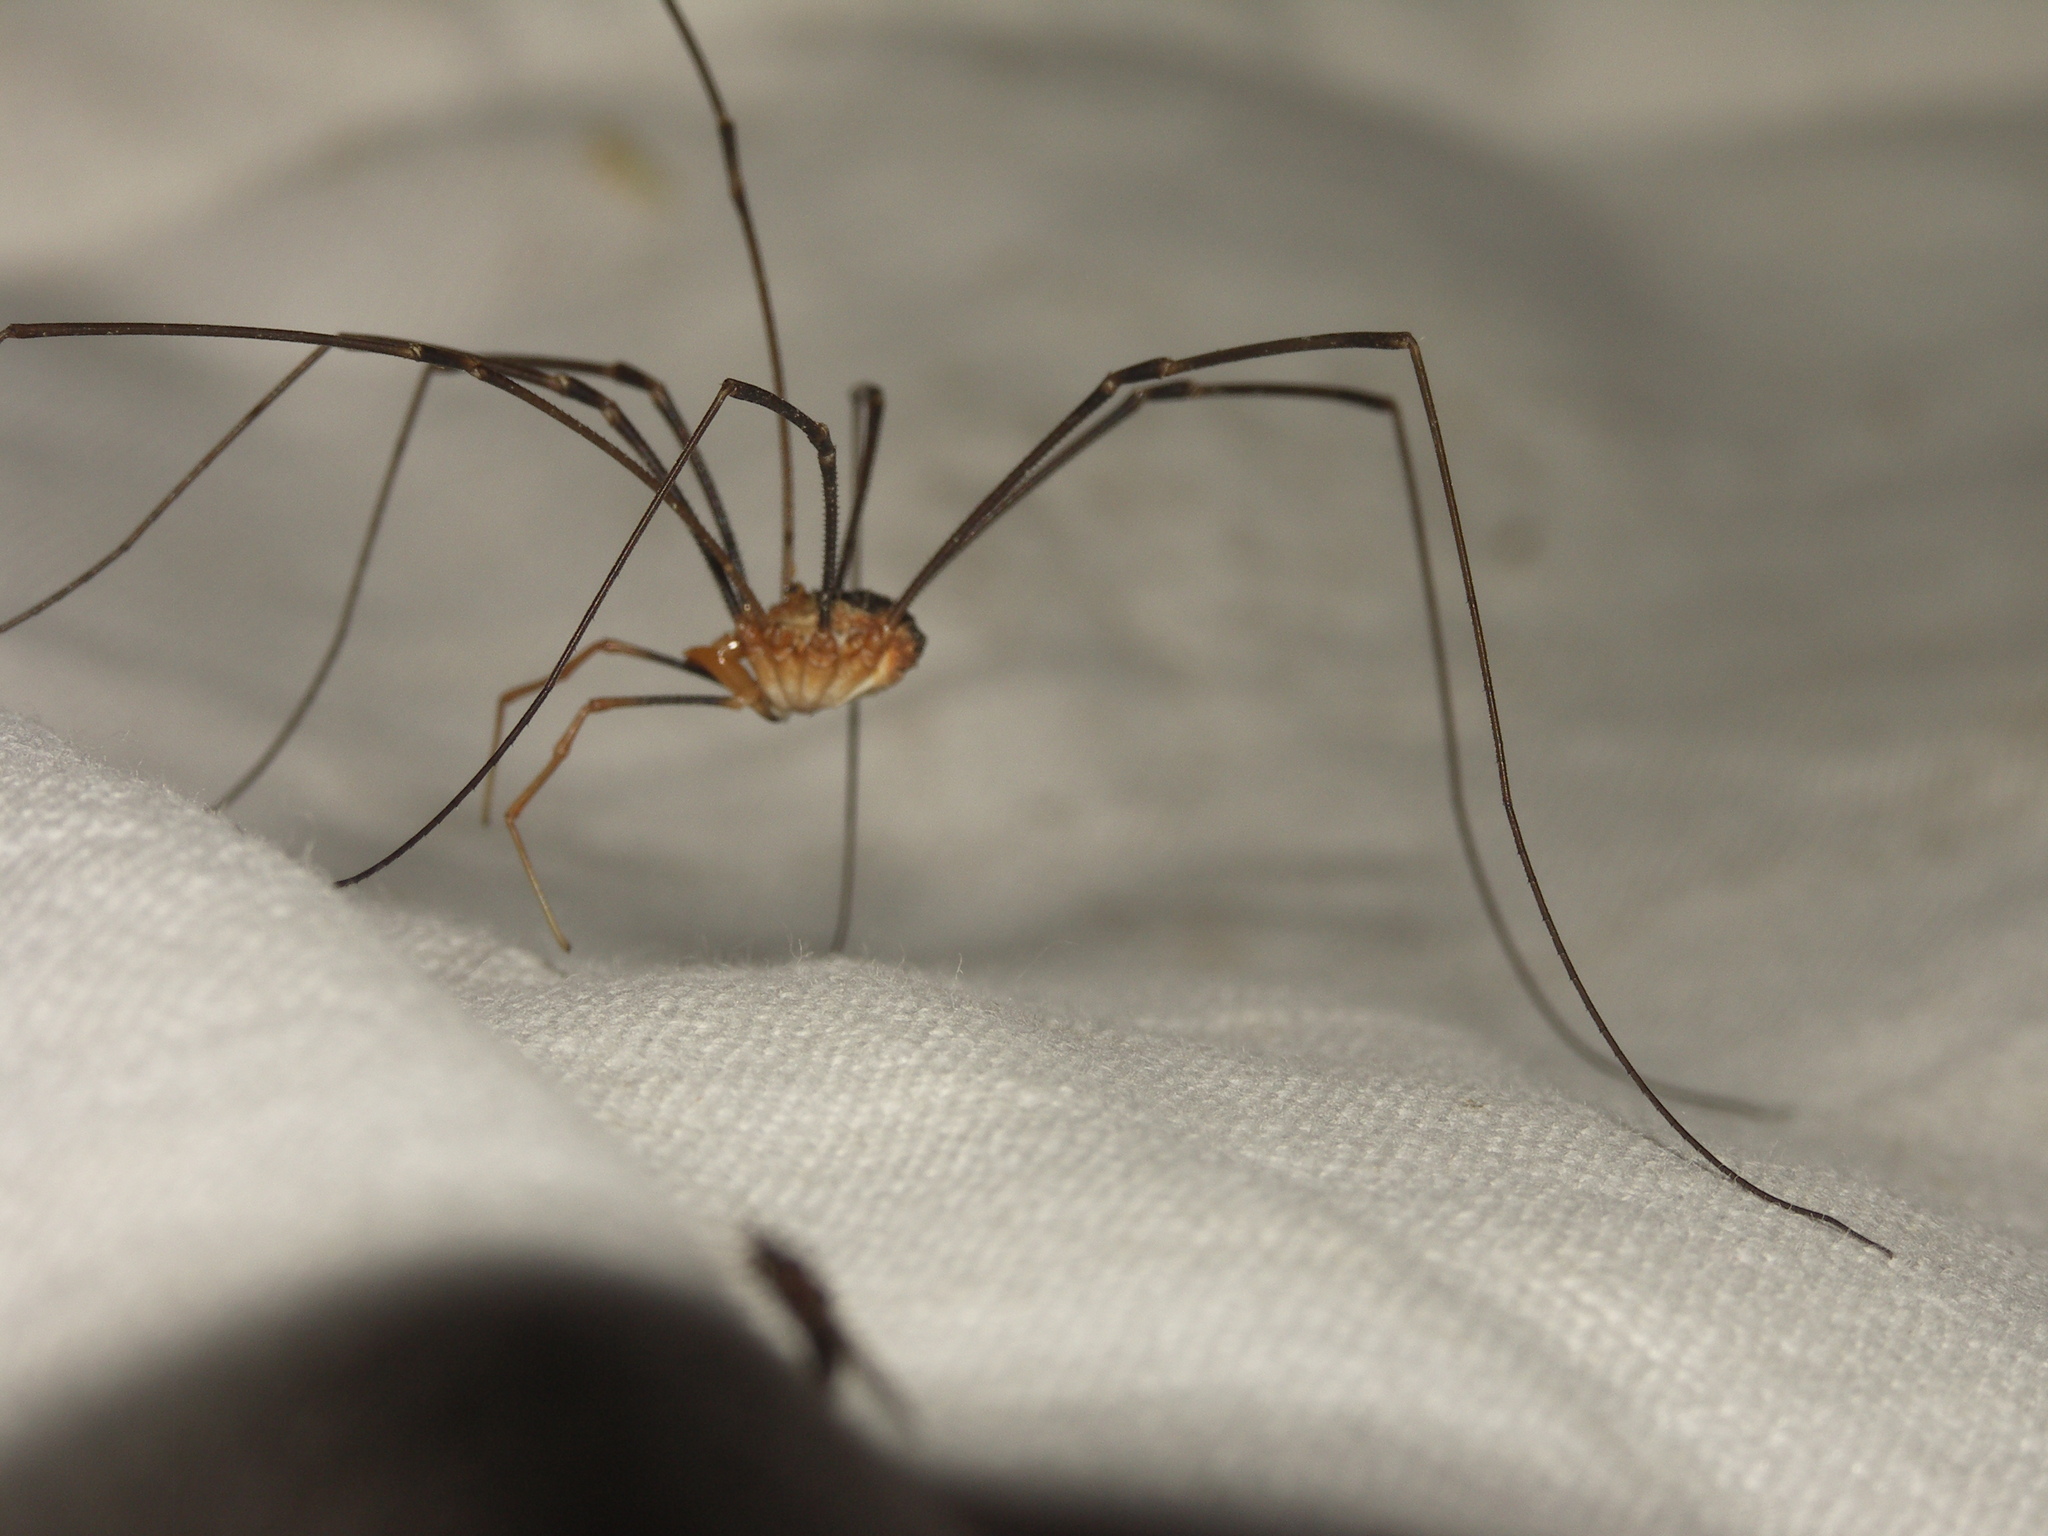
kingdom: Animalia
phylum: Arthropoda
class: Arachnida
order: Opiliones
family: Phalangiidae
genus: Phalangium
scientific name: Phalangium opilio
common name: Daddy longleg
